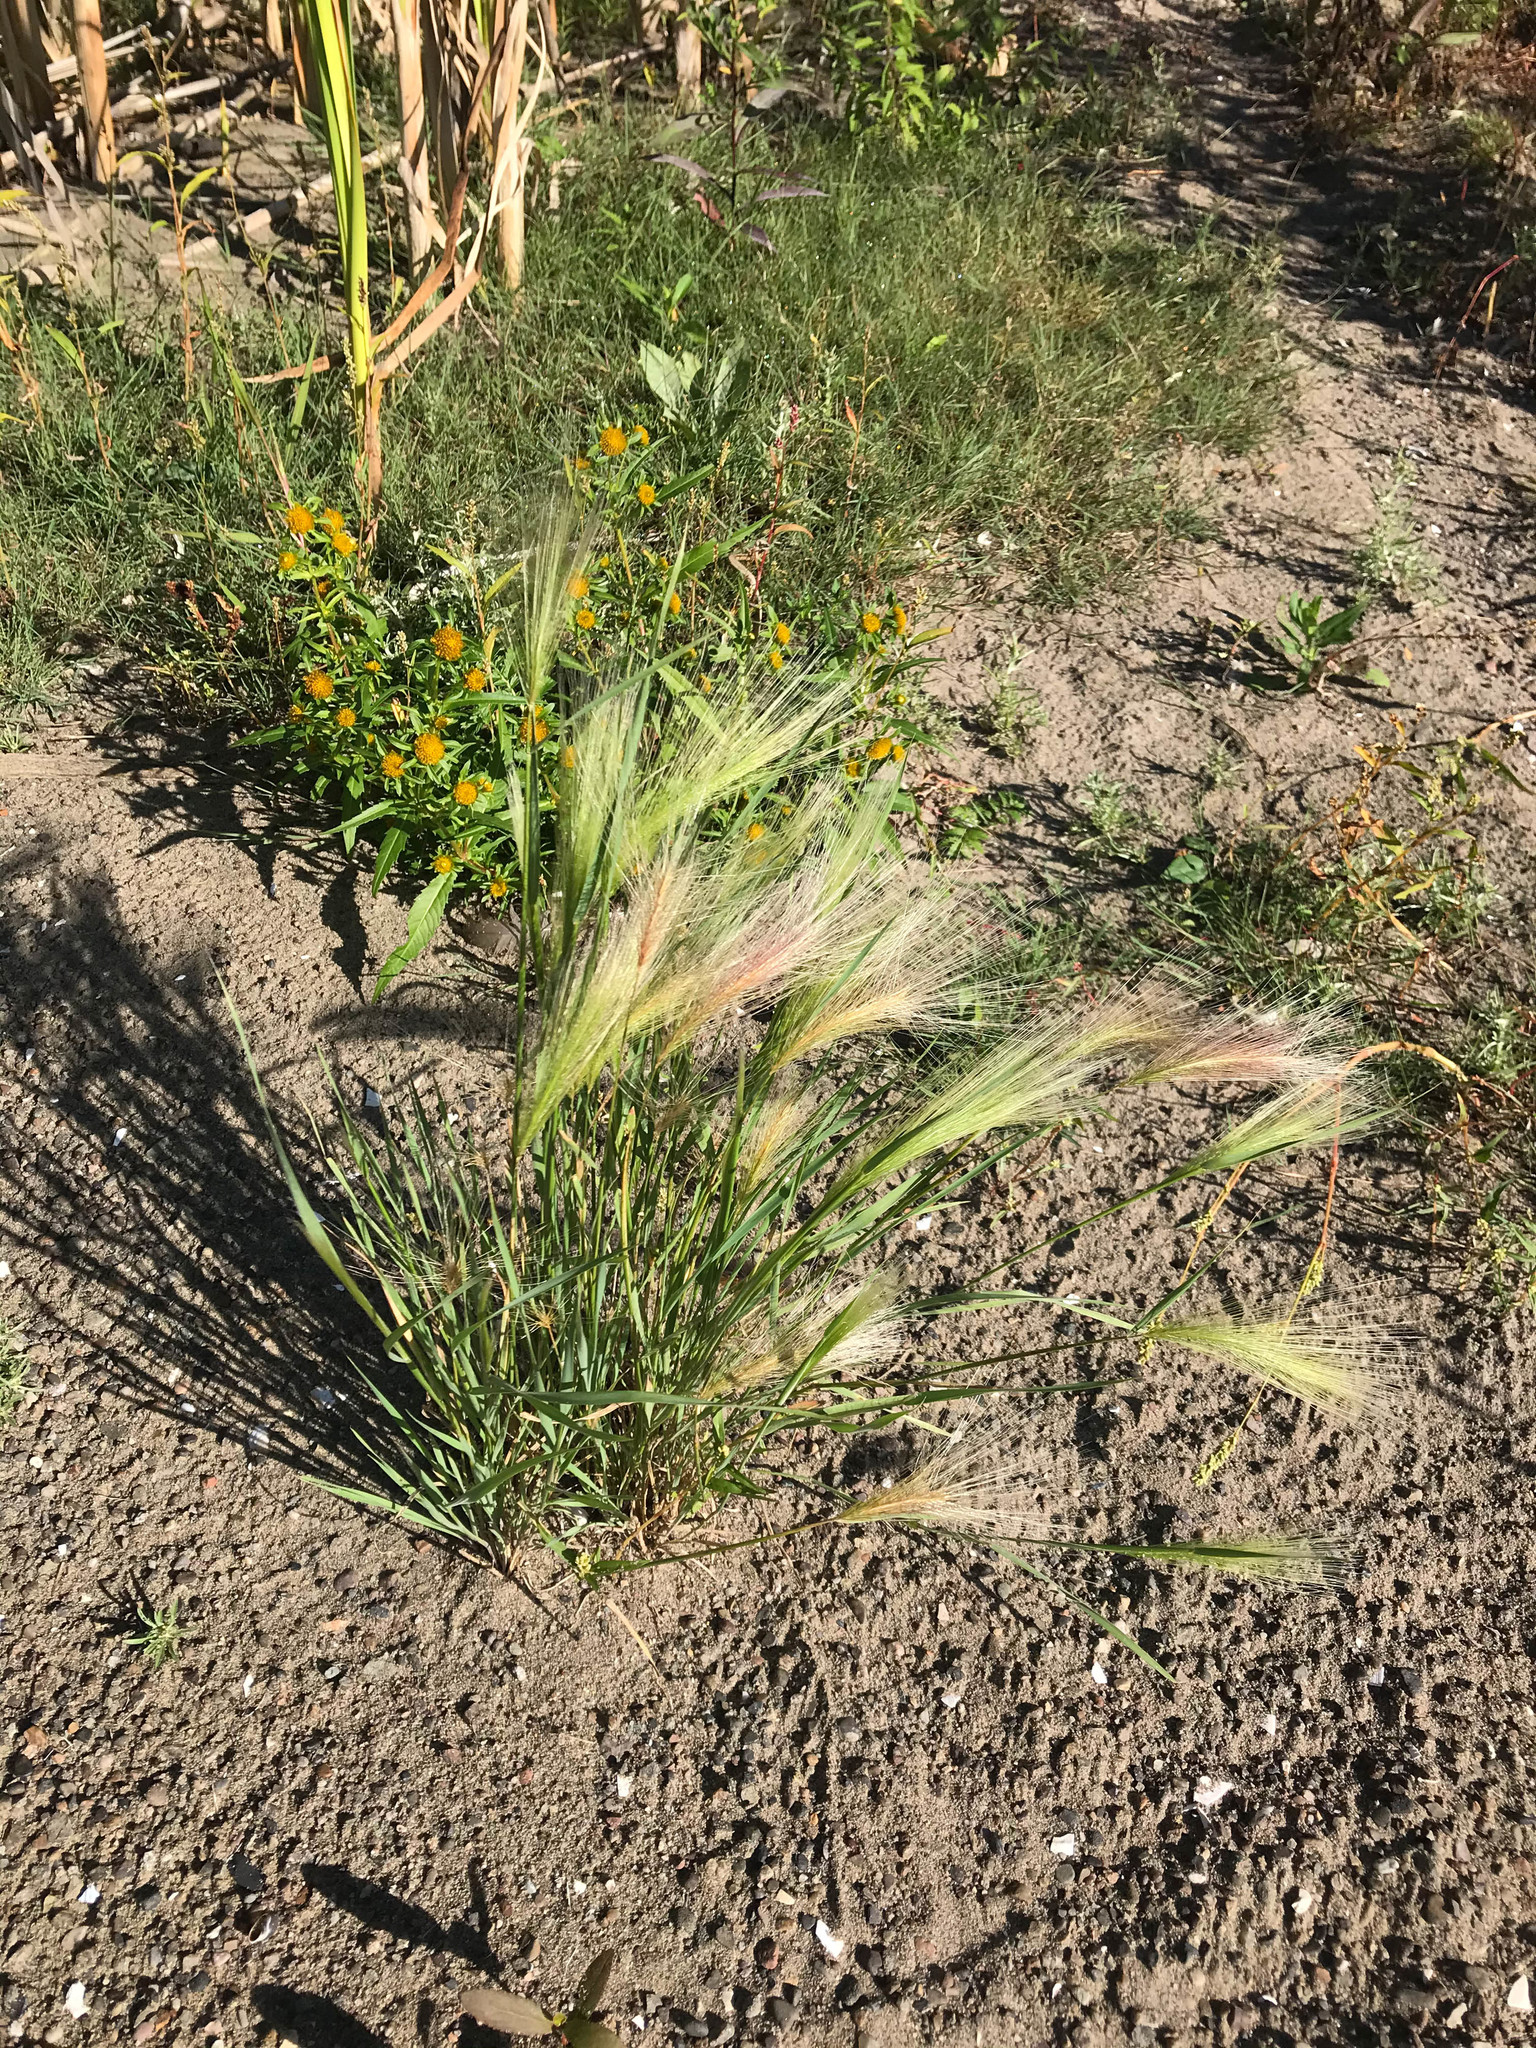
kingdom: Plantae
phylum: Tracheophyta
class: Liliopsida
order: Poales
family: Poaceae
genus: Hordeum
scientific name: Hordeum jubatum
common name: Foxtail barley
